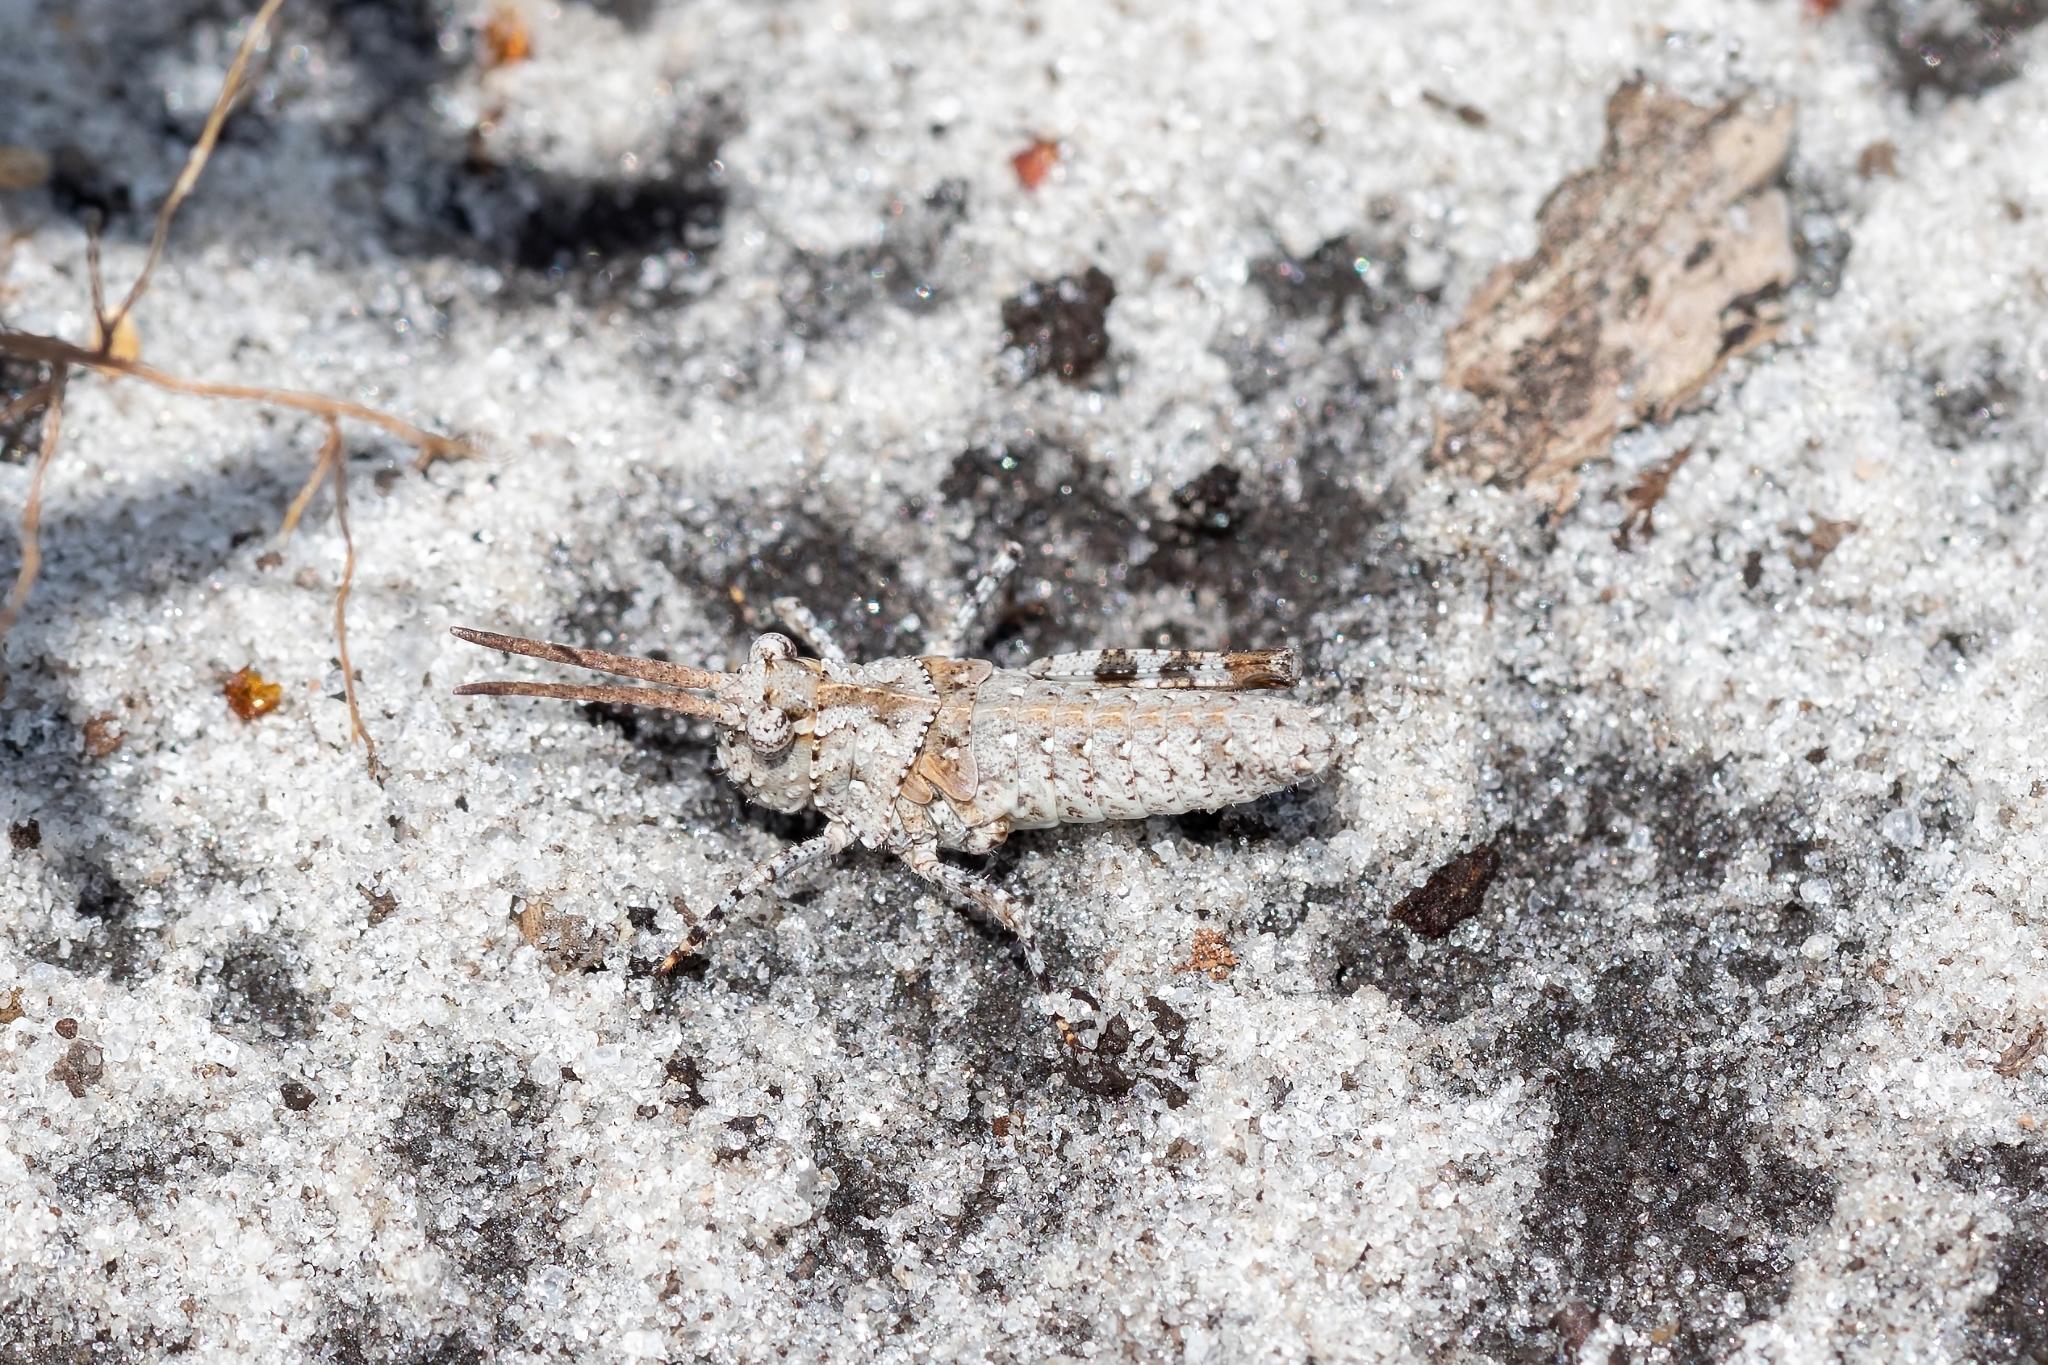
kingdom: Animalia
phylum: Arthropoda
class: Insecta
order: Orthoptera
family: Acrididae
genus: Psinidia
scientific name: Psinidia fenestralis
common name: Long-horned locust
